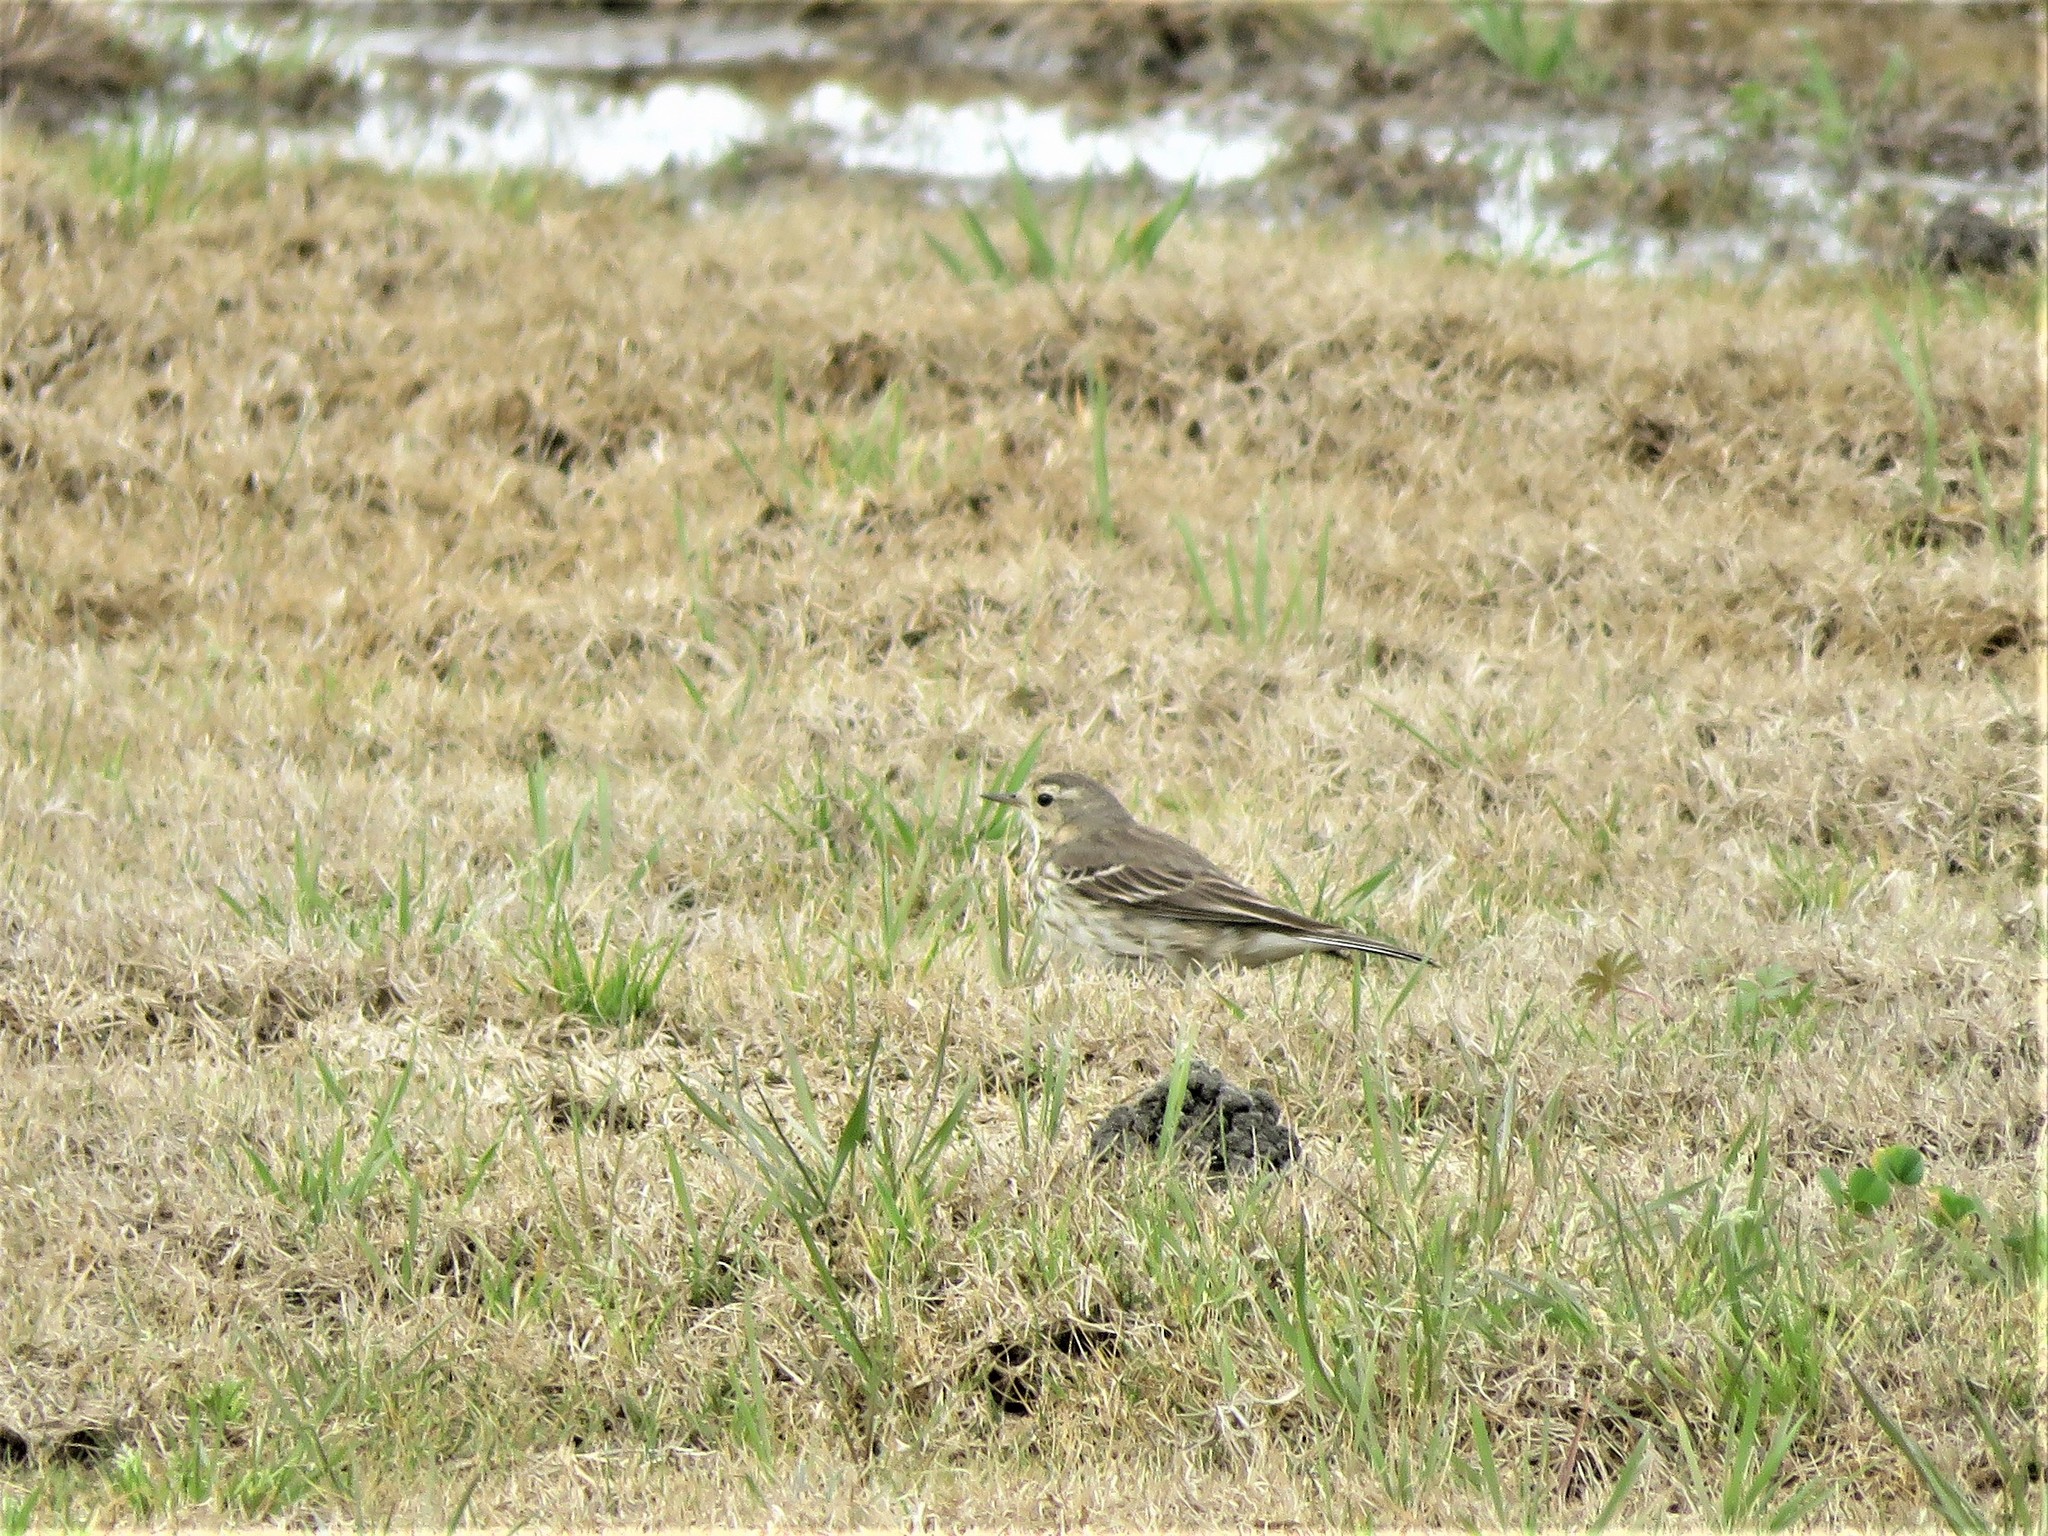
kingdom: Animalia
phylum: Chordata
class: Aves
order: Passeriformes
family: Motacillidae
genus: Anthus
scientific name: Anthus rubescens
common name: Buff-bellied pipit
